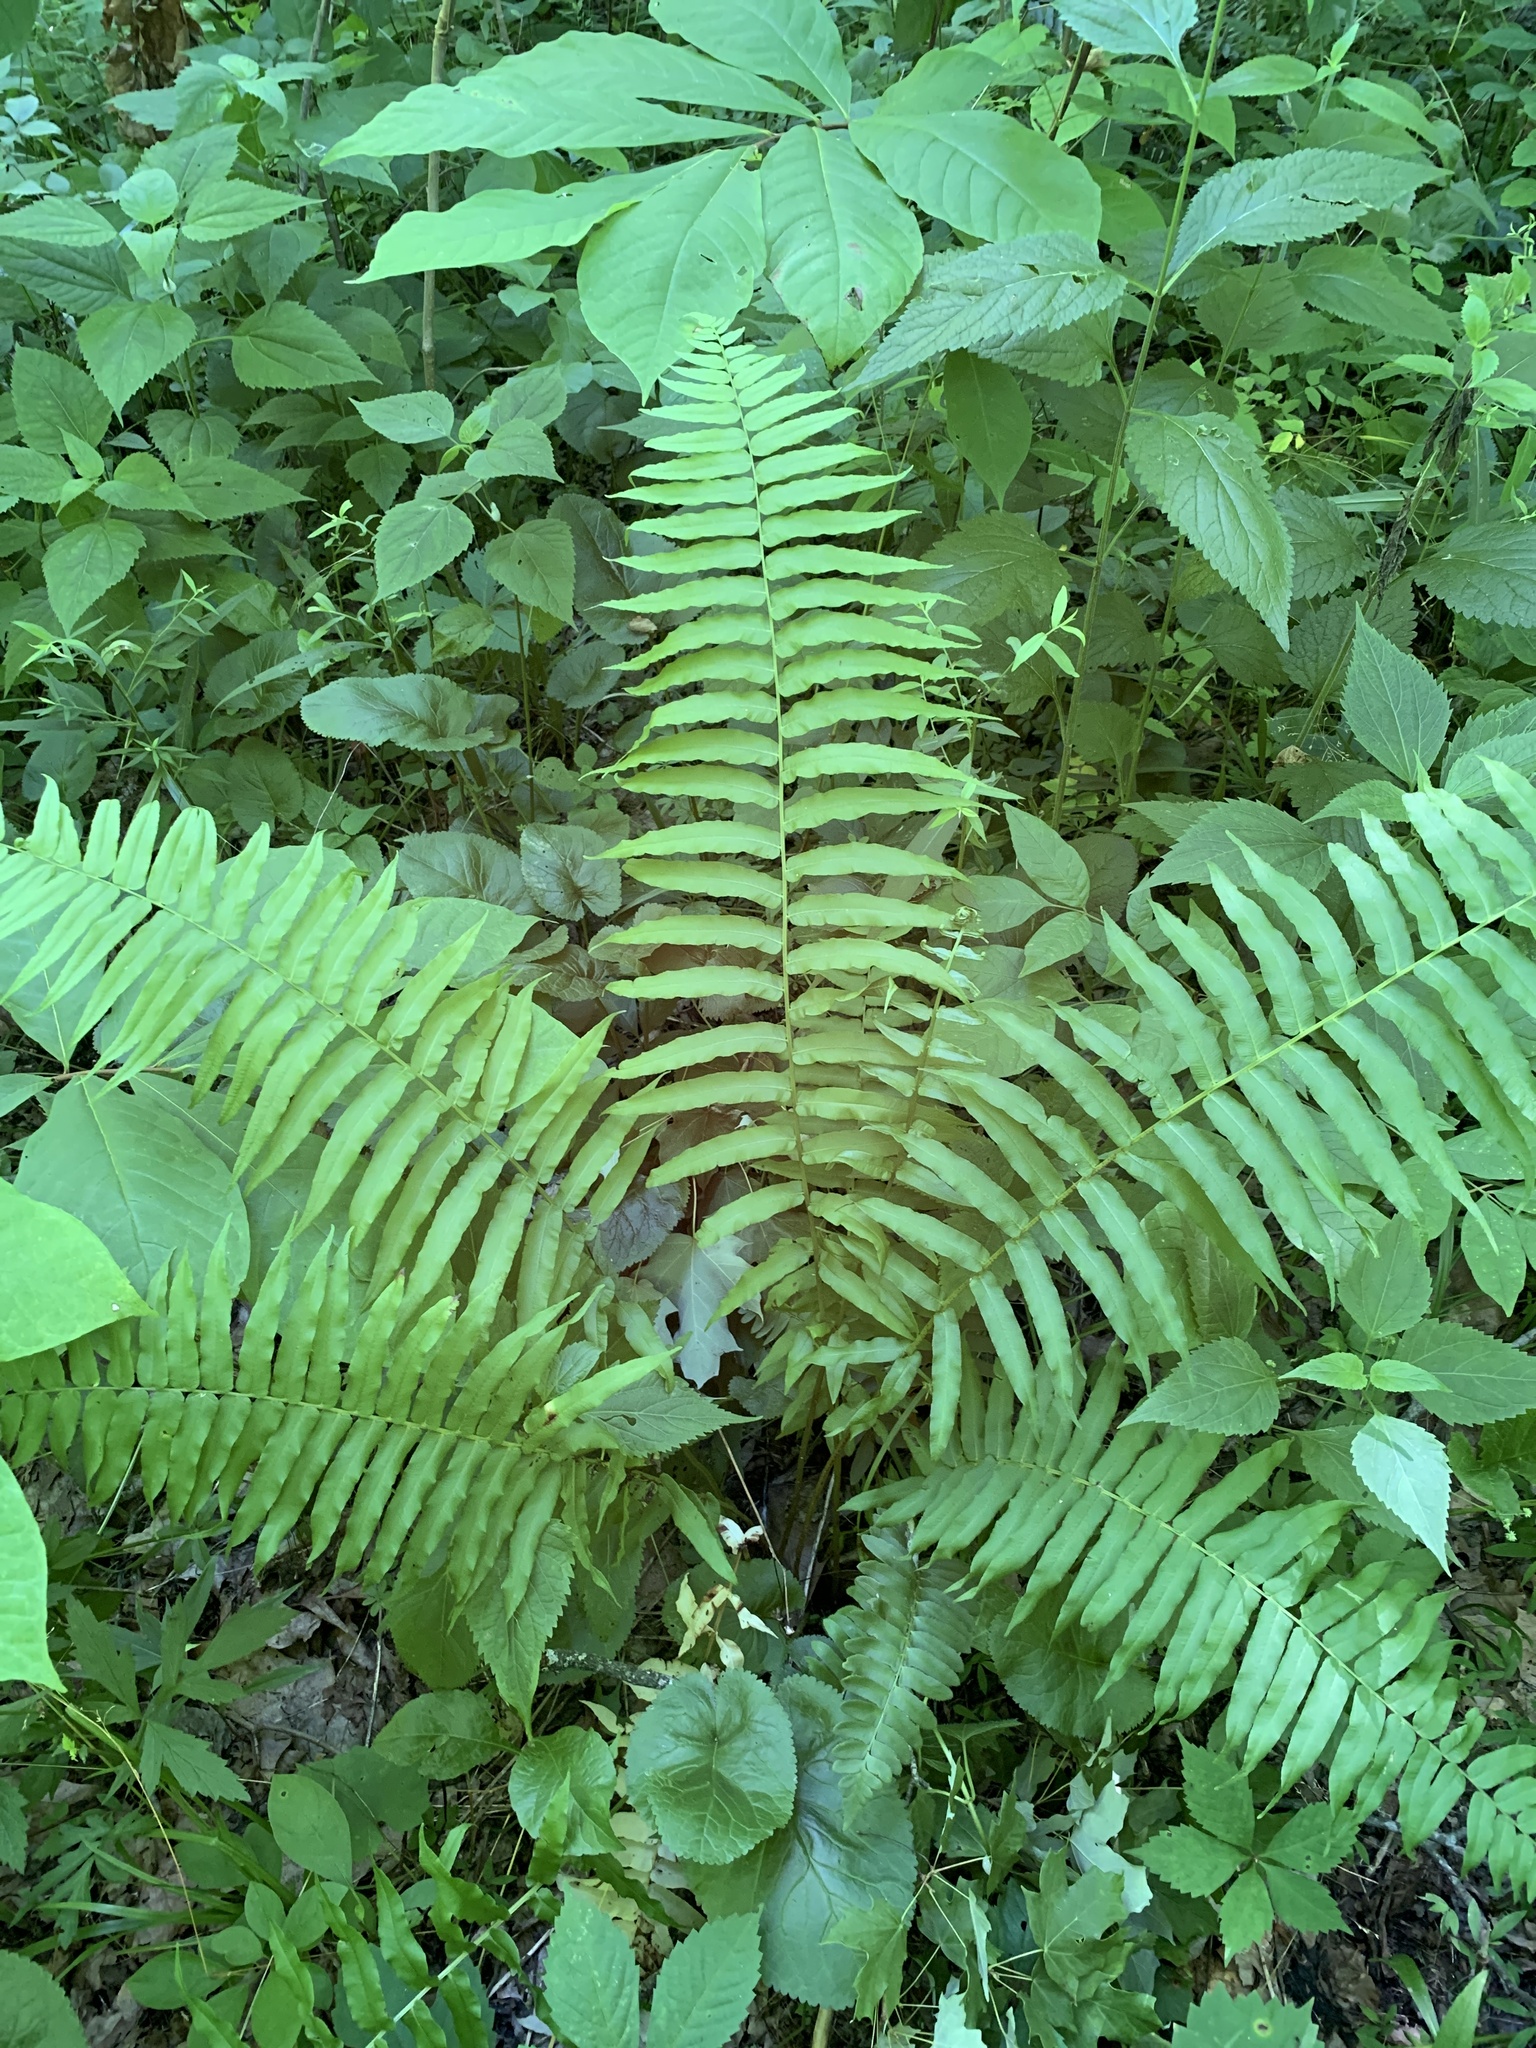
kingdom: Plantae
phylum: Tracheophyta
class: Polypodiopsida
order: Polypodiales
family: Diplaziopsidaceae
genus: Homalosorus
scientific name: Homalosorus pycnocarpos
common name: Glade fern
